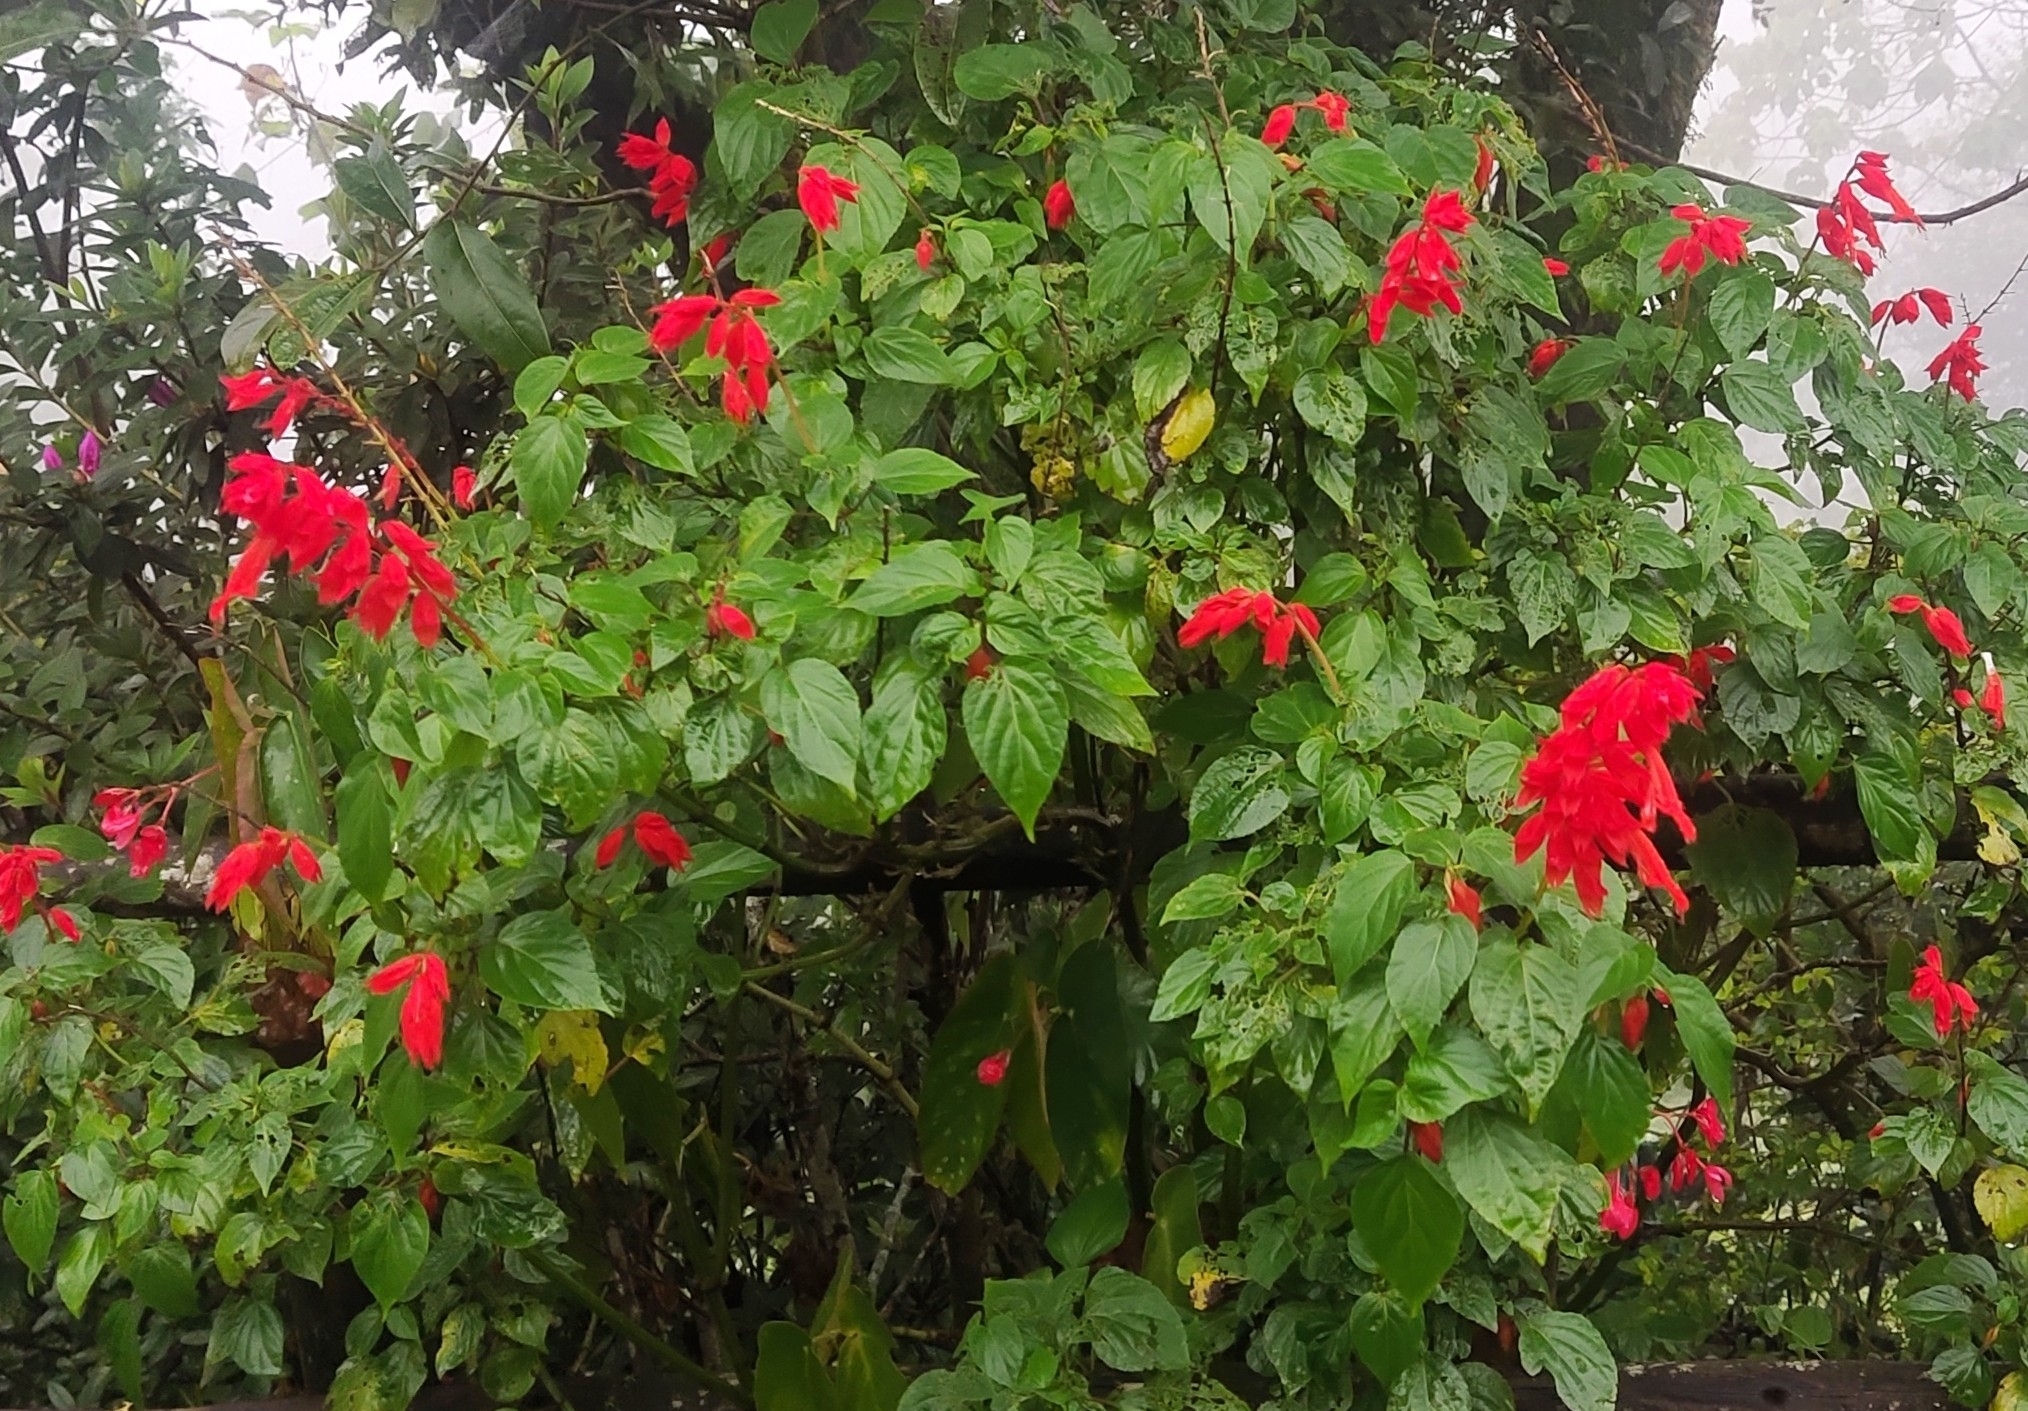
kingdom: Plantae
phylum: Tracheophyta
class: Magnoliopsida
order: Lamiales
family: Lamiaceae
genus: Salvia
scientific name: Salvia splendens
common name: Scarlet sage
